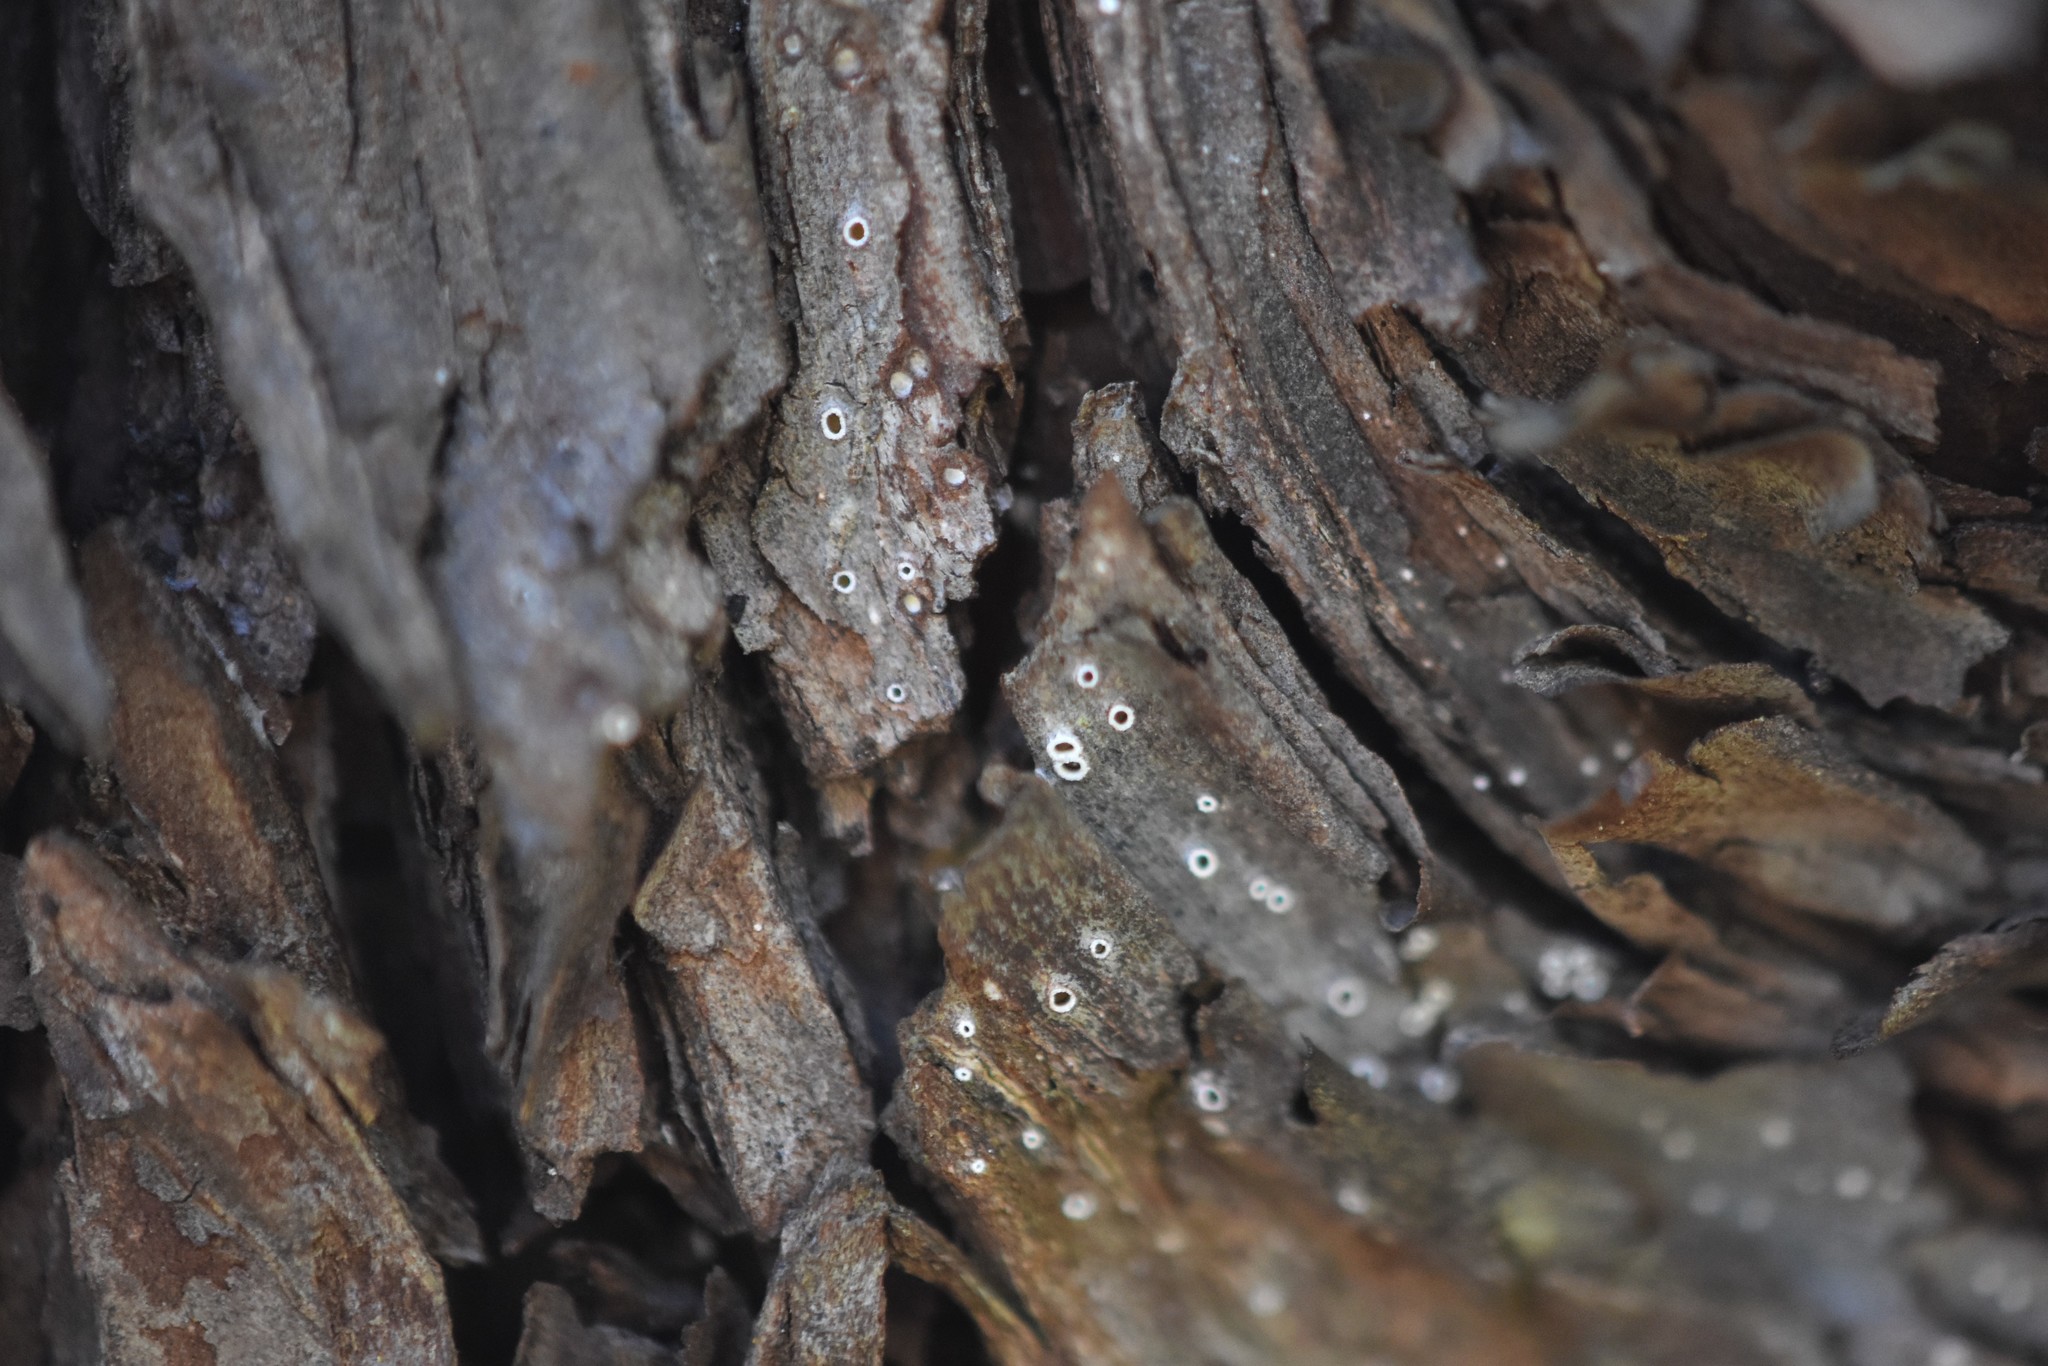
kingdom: Fungi
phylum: Ascomycota
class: Lecanoromycetes
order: Ostropales
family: Stictidaceae
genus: Stictis
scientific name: Stictis radiata
